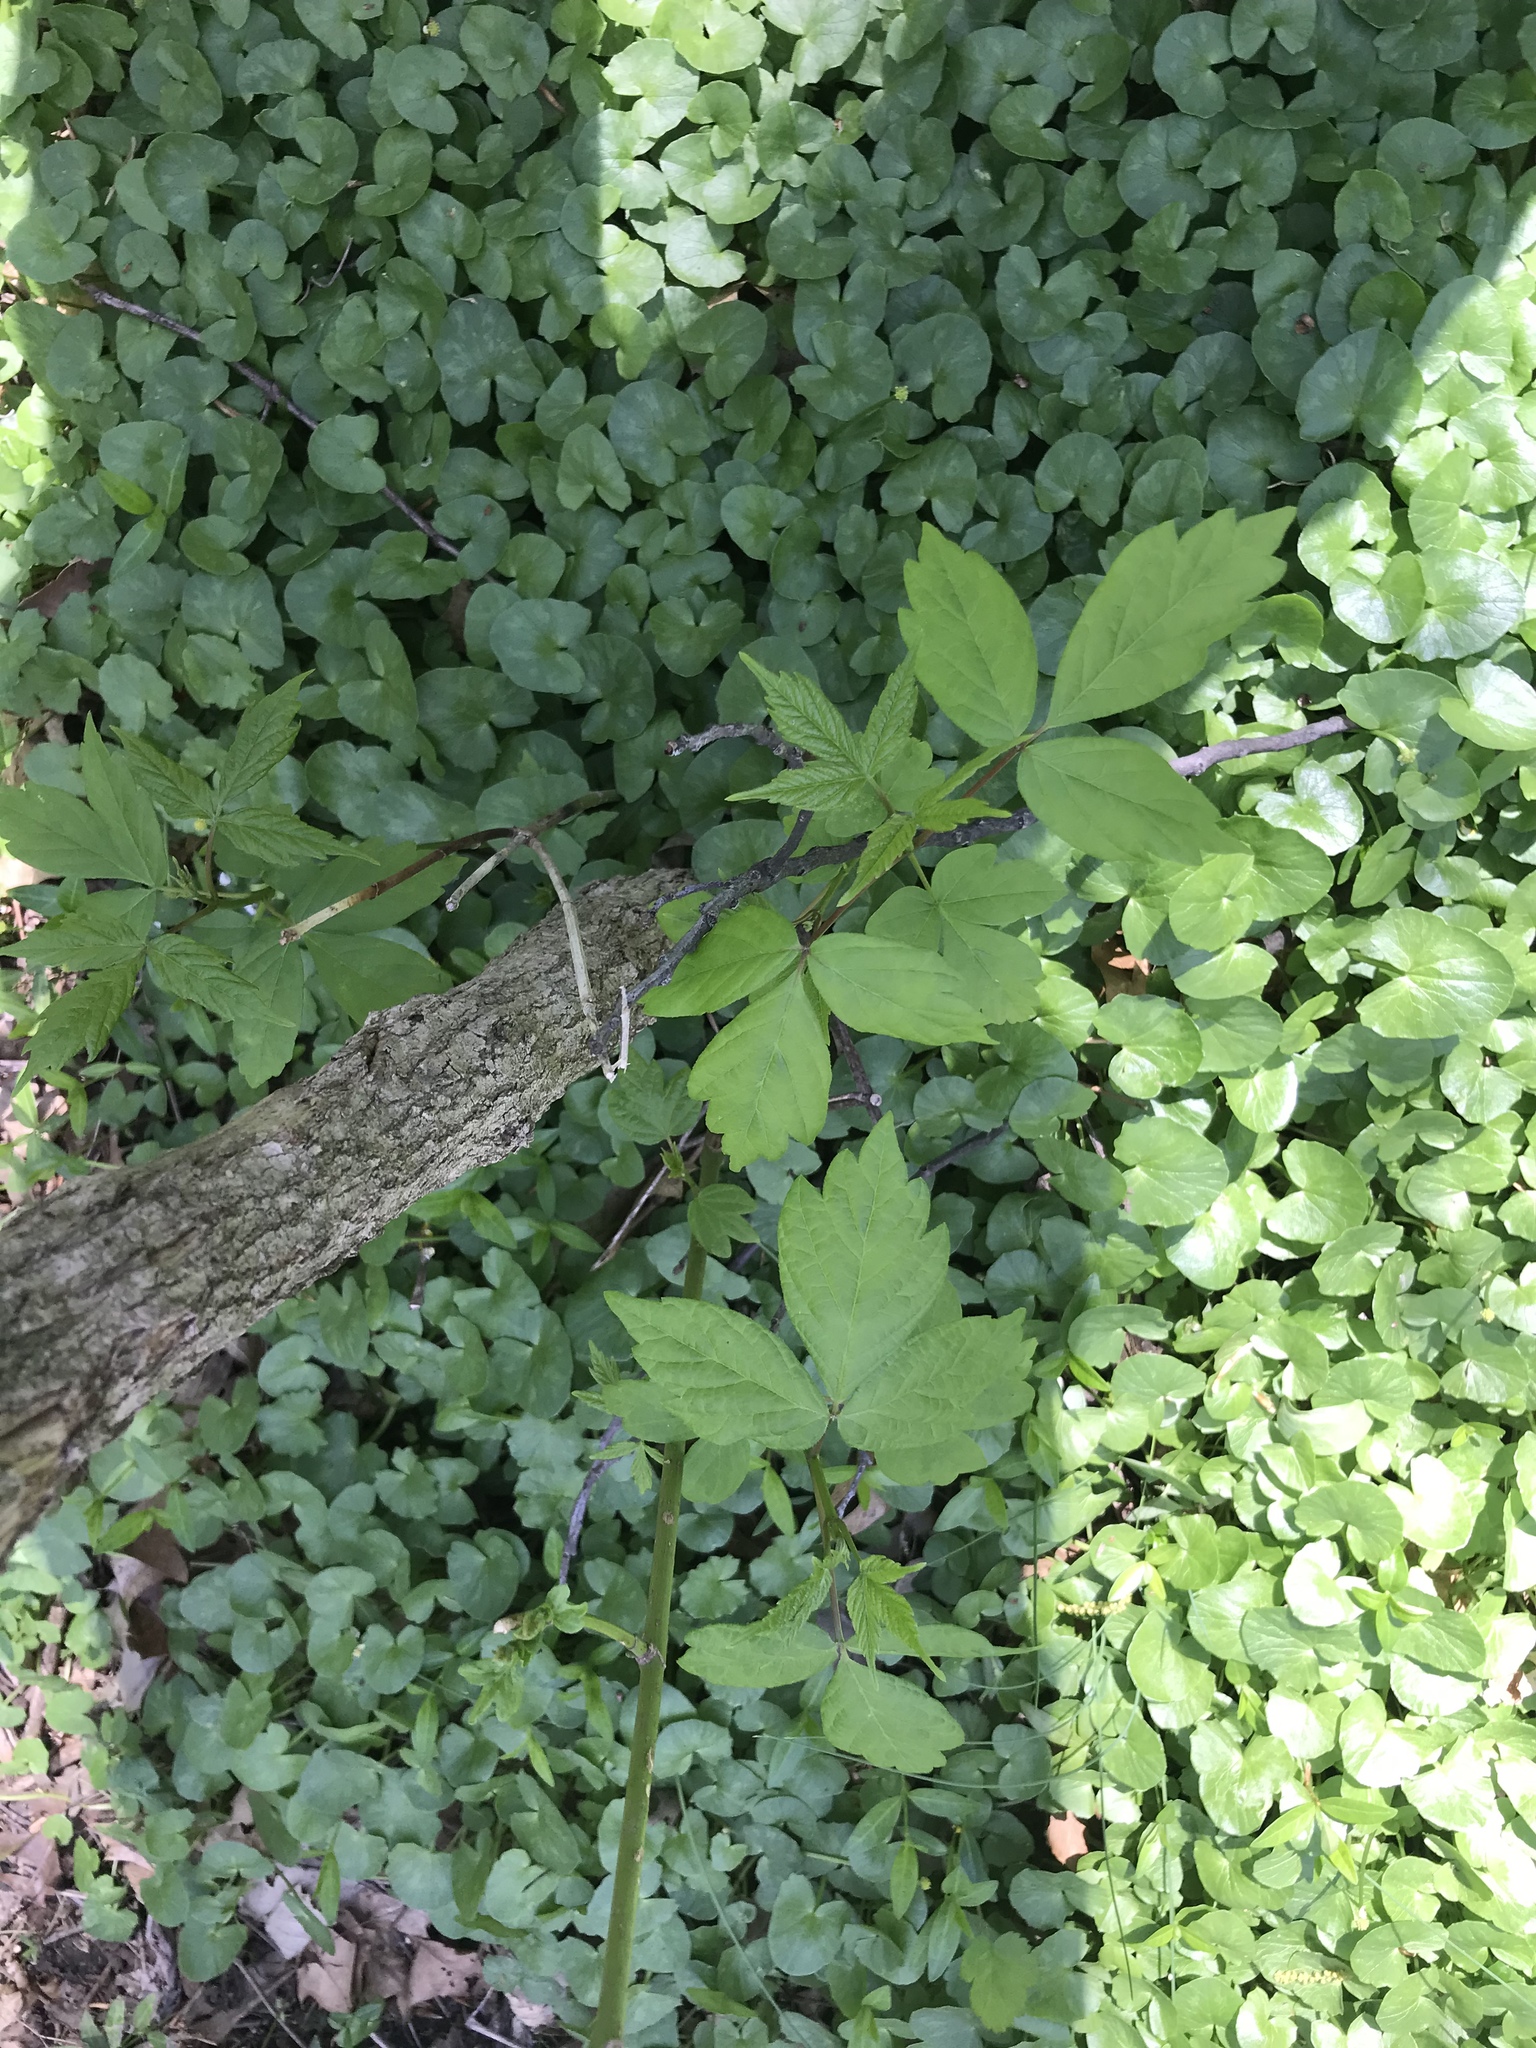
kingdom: Plantae
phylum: Tracheophyta
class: Magnoliopsida
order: Sapindales
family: Sapindaceae
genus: Acer
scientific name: Acer negundo
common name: Ashleaf maple
